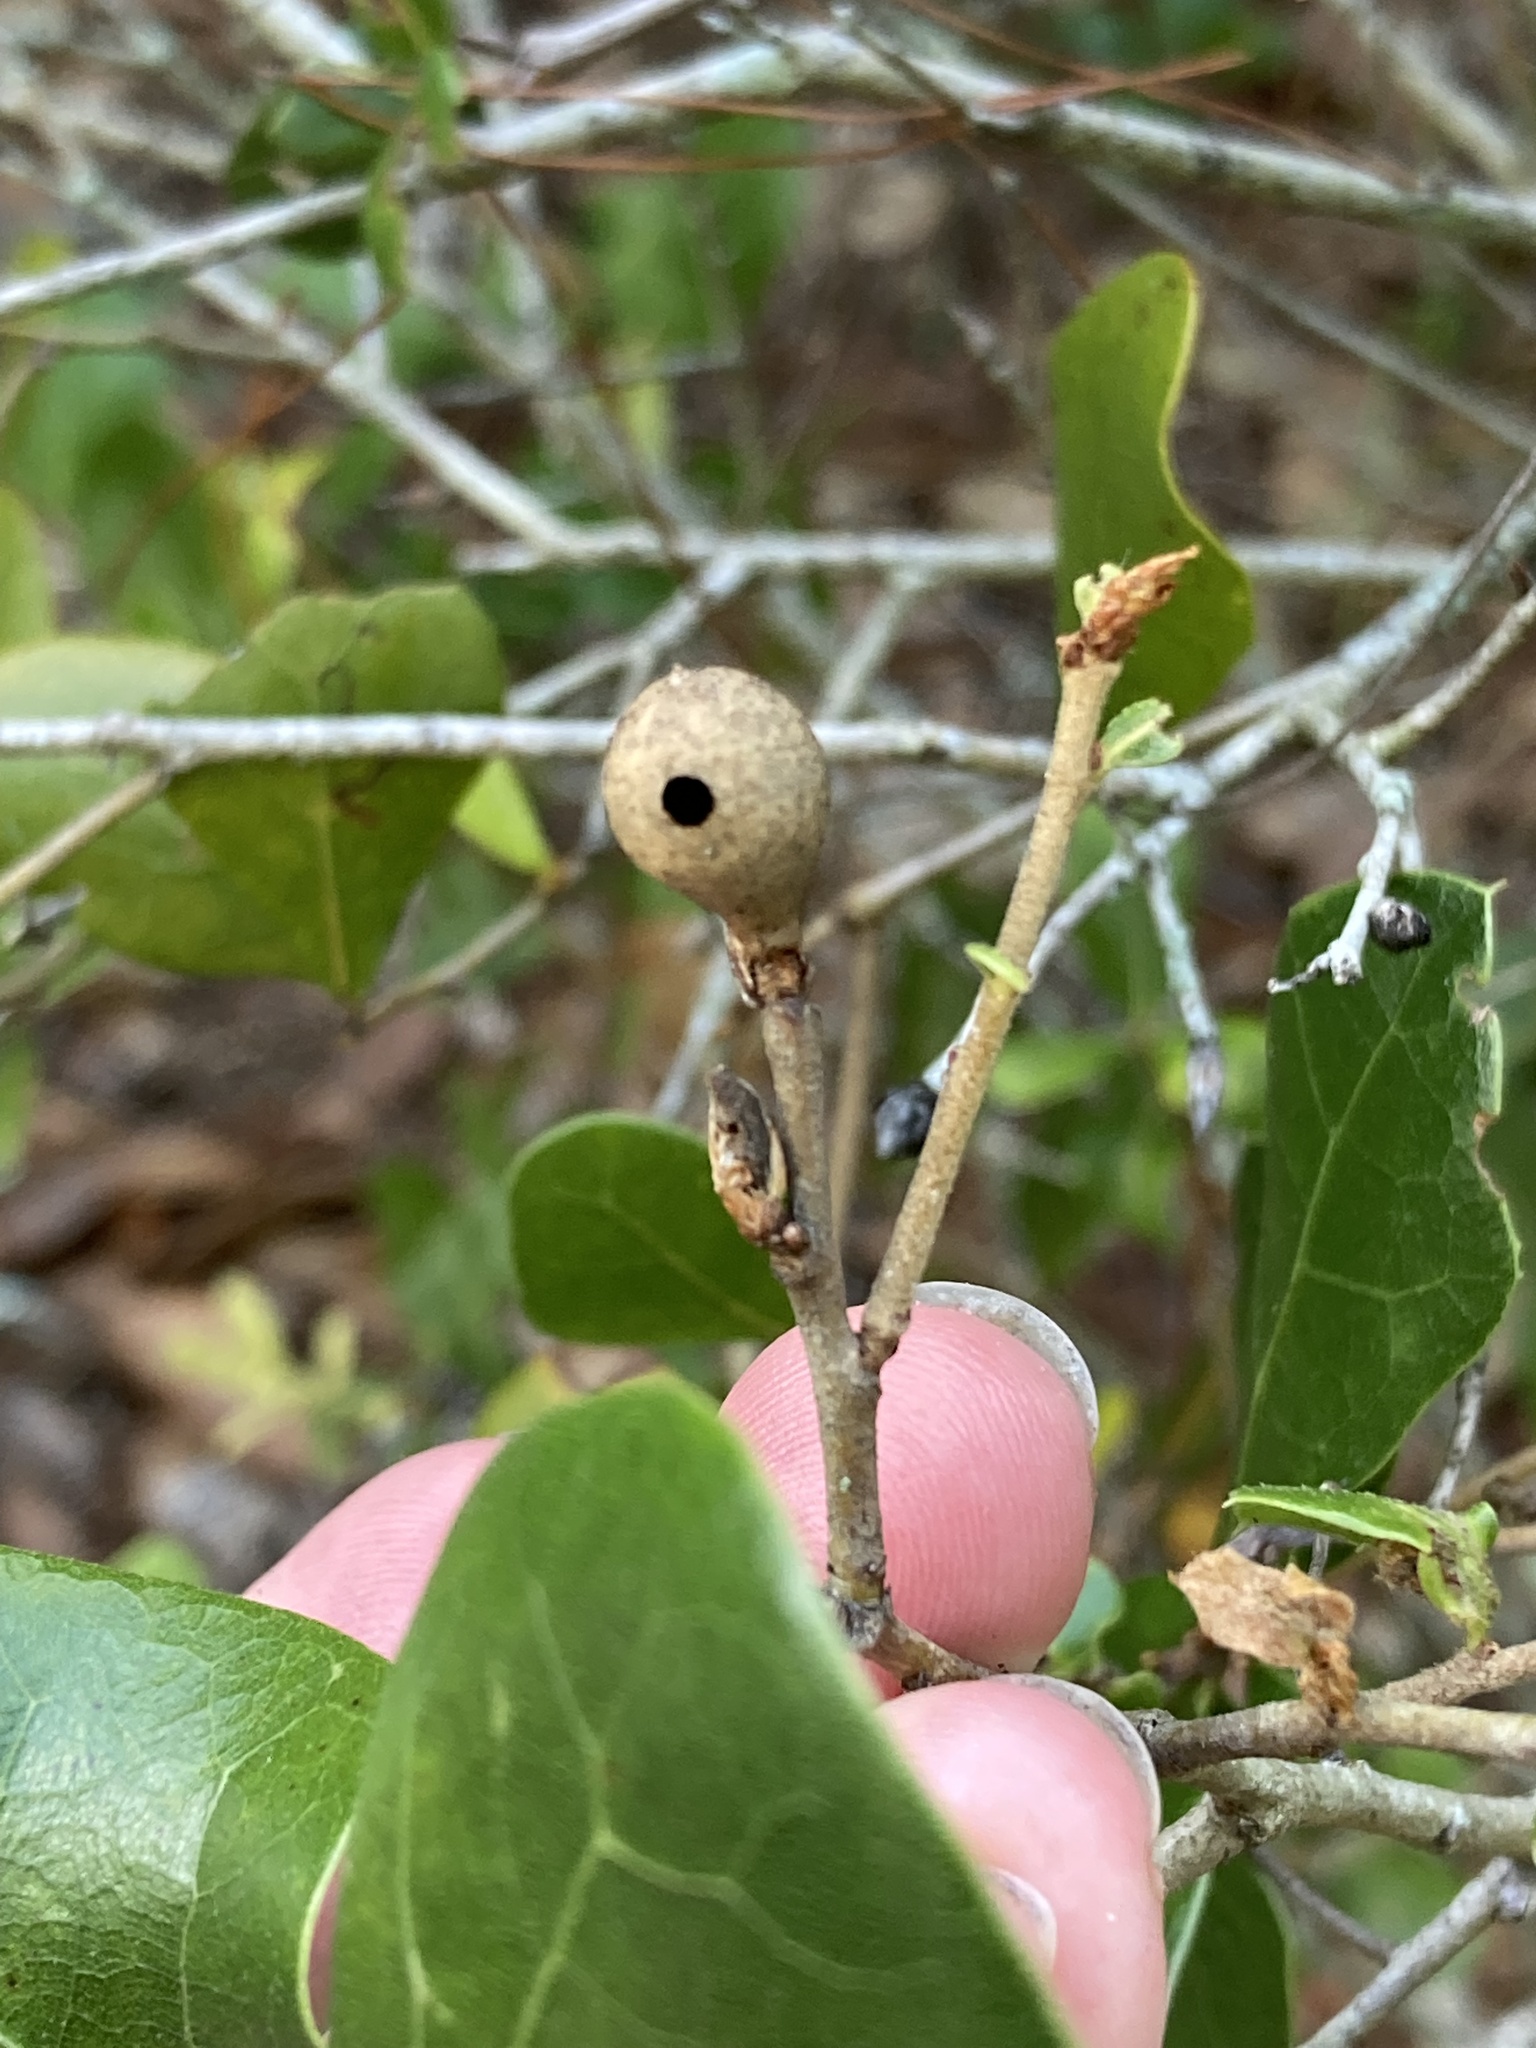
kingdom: Animalia
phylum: Arthropoda
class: Insecta
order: Hymenoptera
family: Cynipidae
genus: Amphibolips
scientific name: Amphibolips
